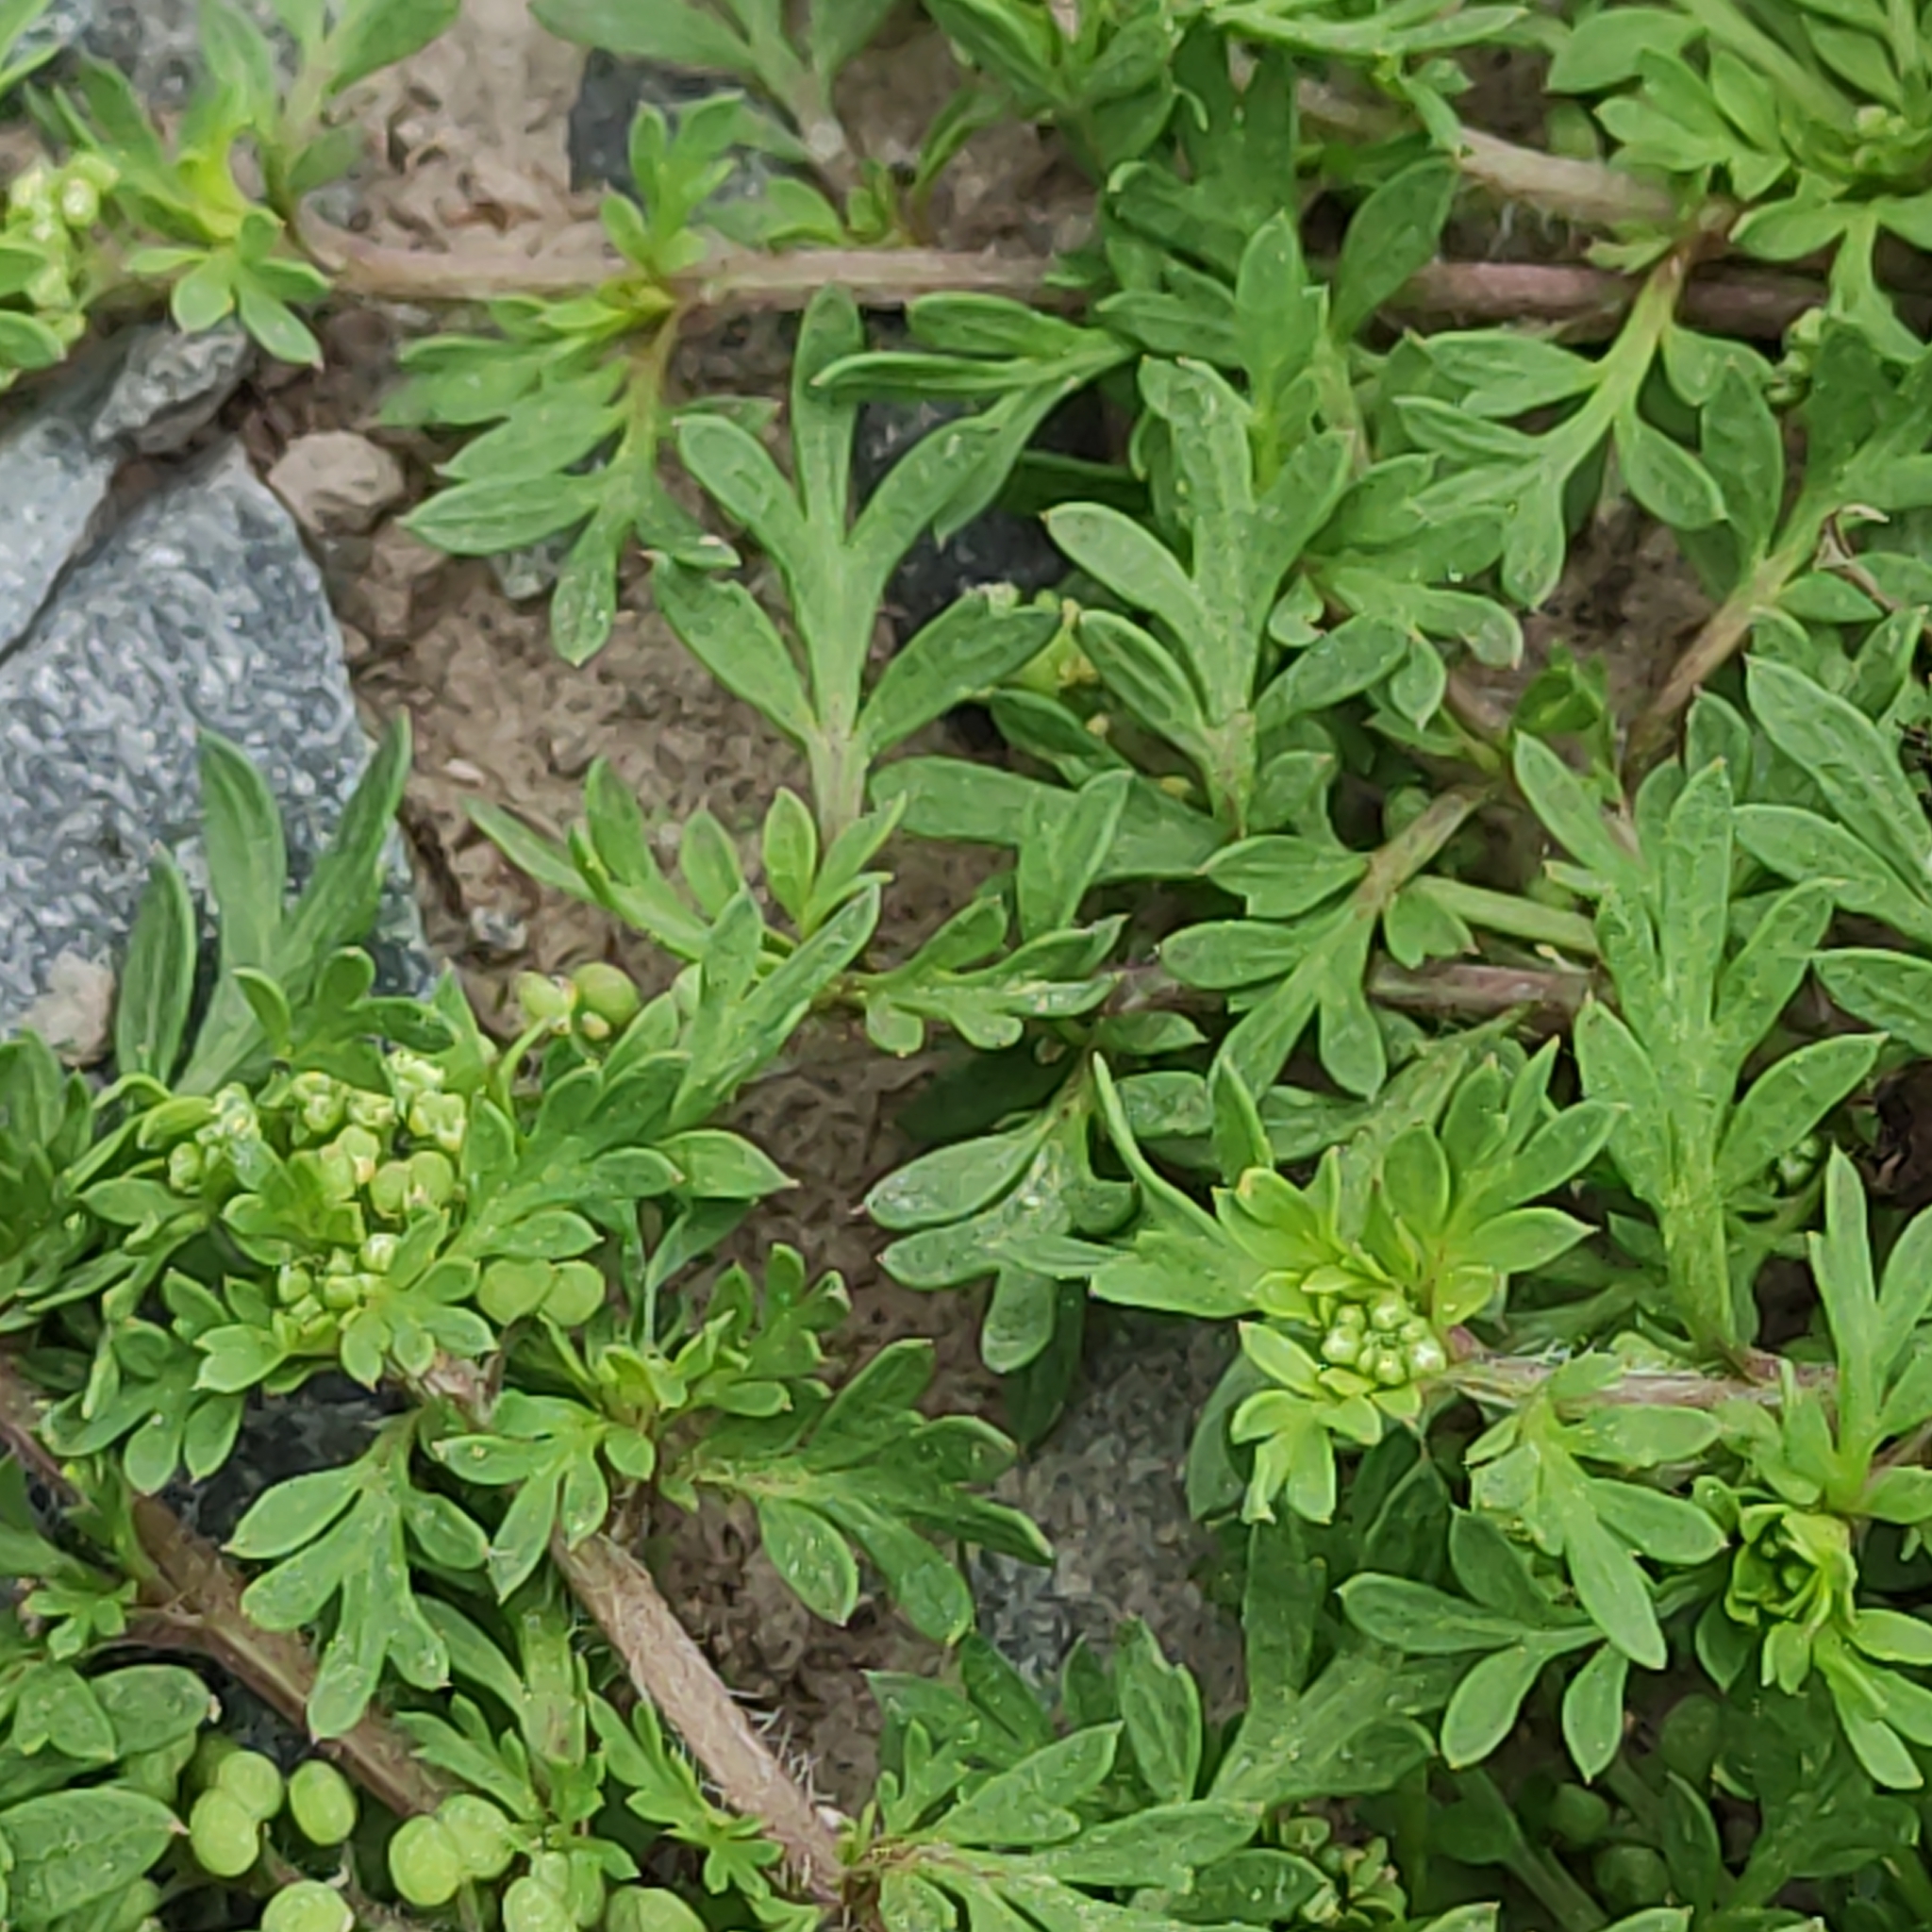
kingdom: Plantae
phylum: Tracheophyta
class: Magnoliopsida
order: Brassicales
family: Brassicaceae
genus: Lepidium
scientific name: Lepidium didymum
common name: Lesser swinecress
